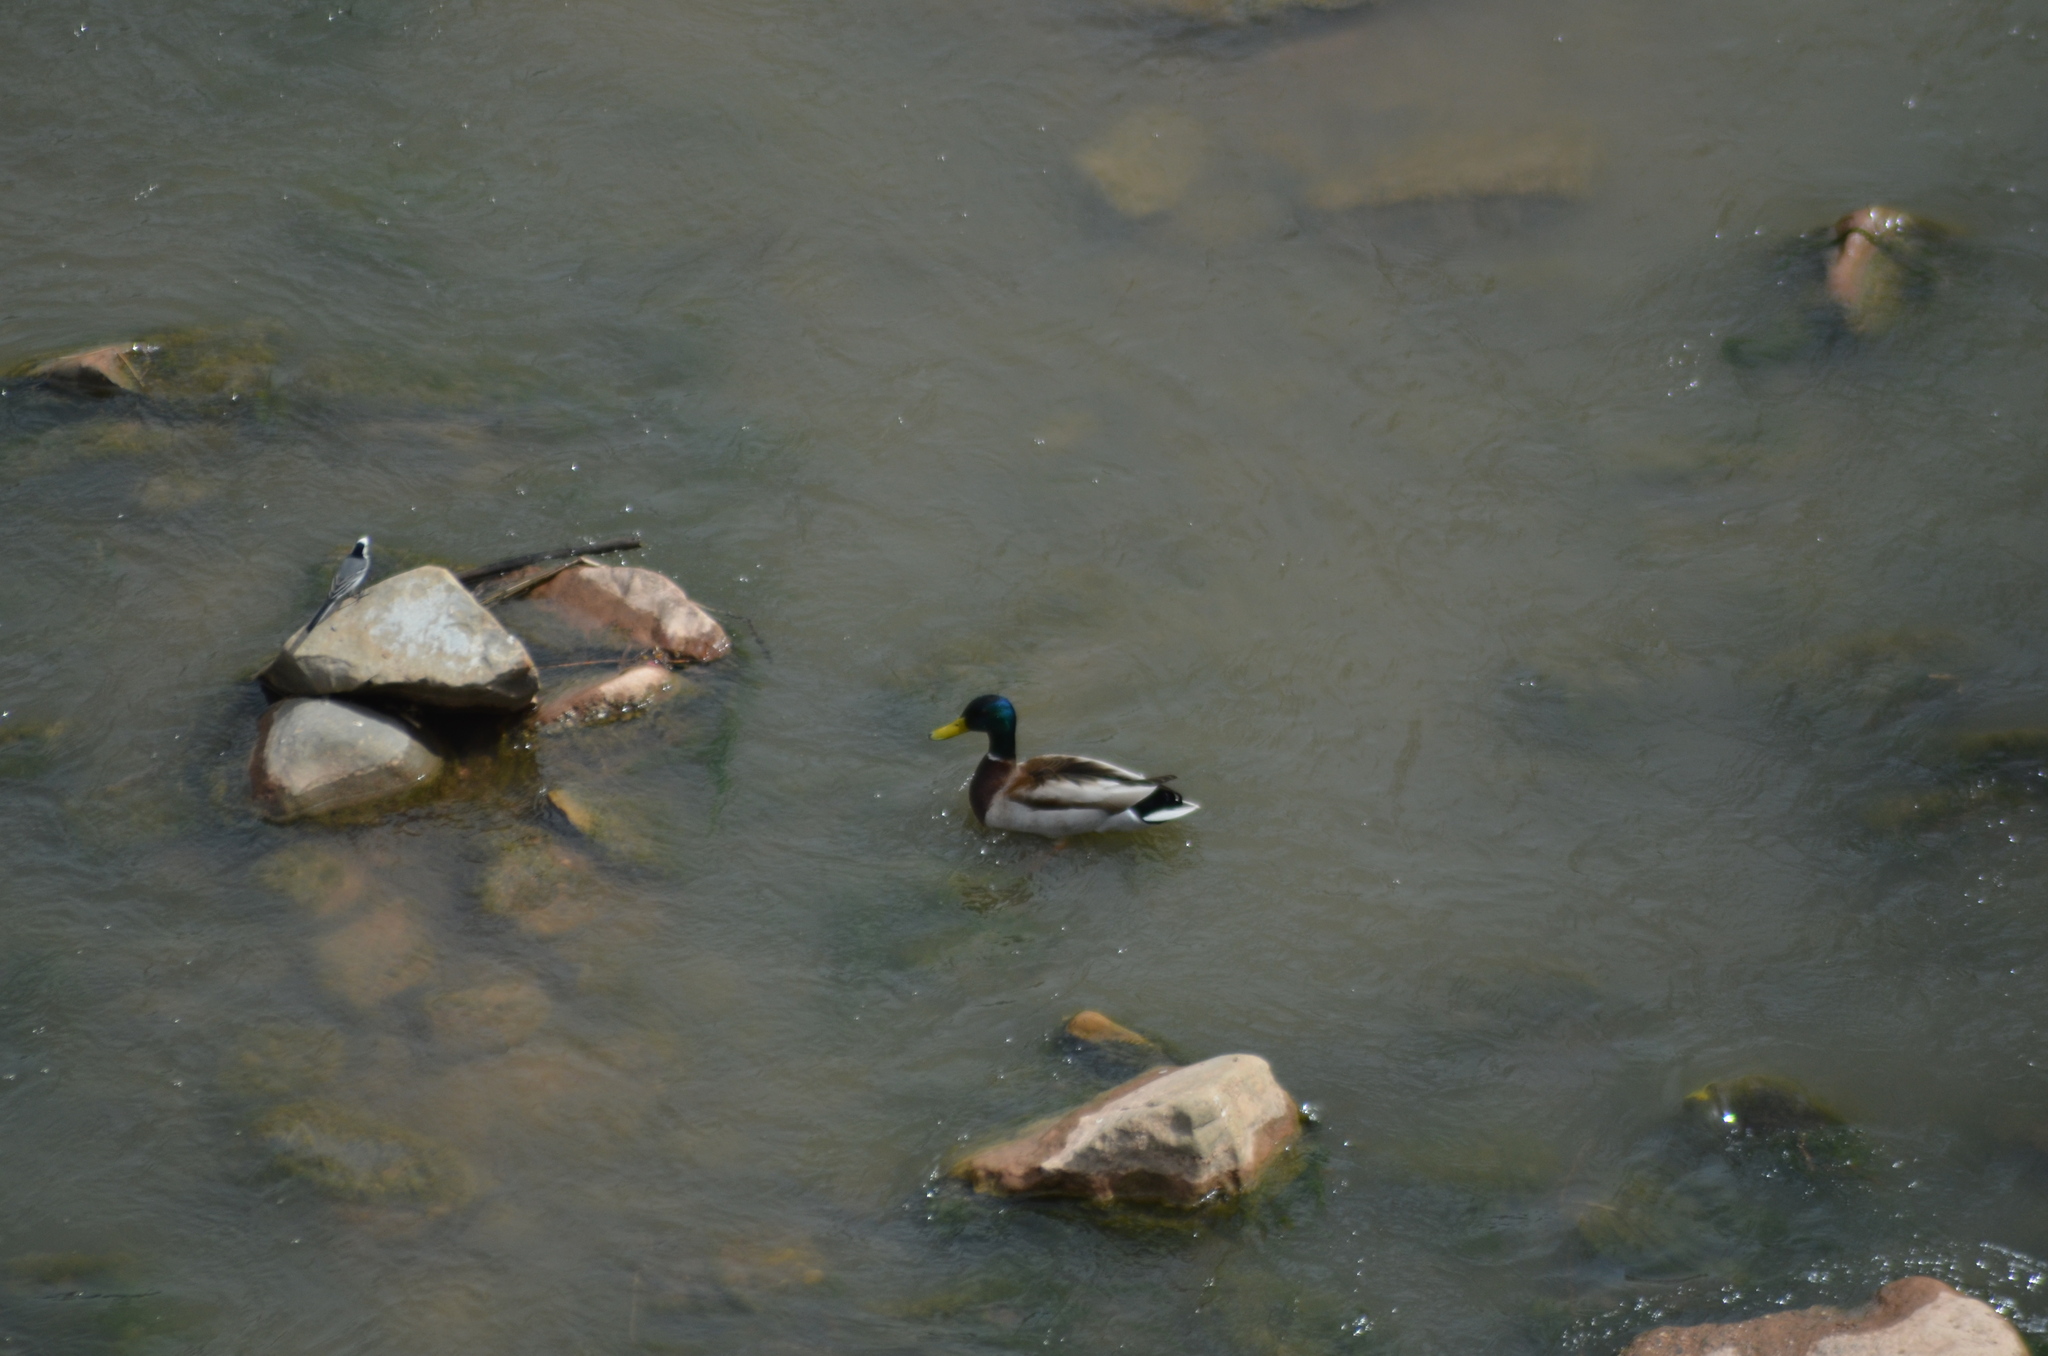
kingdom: Animalia
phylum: Chordata
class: Aves
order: Anseriformes
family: Anatidae
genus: Anas
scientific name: Anas platyrhynchos
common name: Mallard
